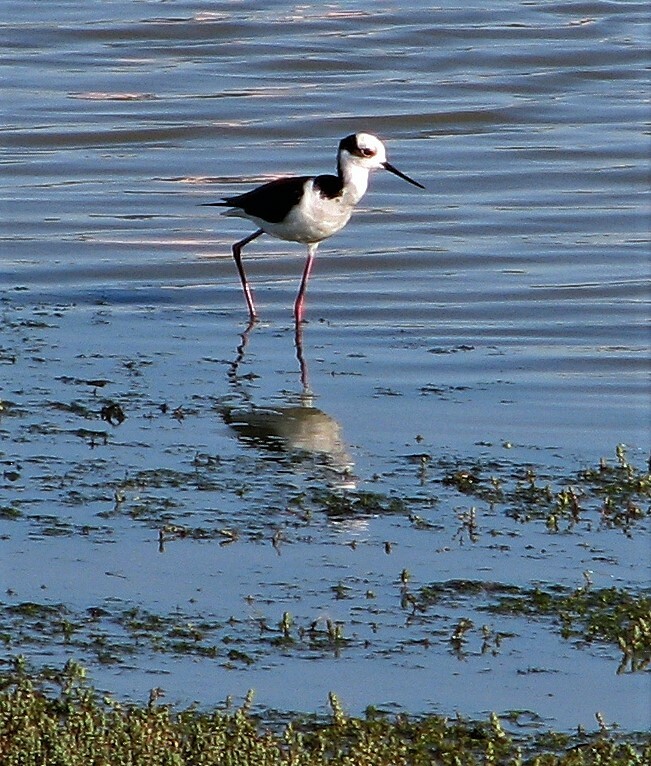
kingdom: Animalia
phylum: Chordata
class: Aves
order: Charadriiformes
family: Recurvirostridae
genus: Himantopus
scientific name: Himantopus mexicanus
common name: Black-necked stilt
